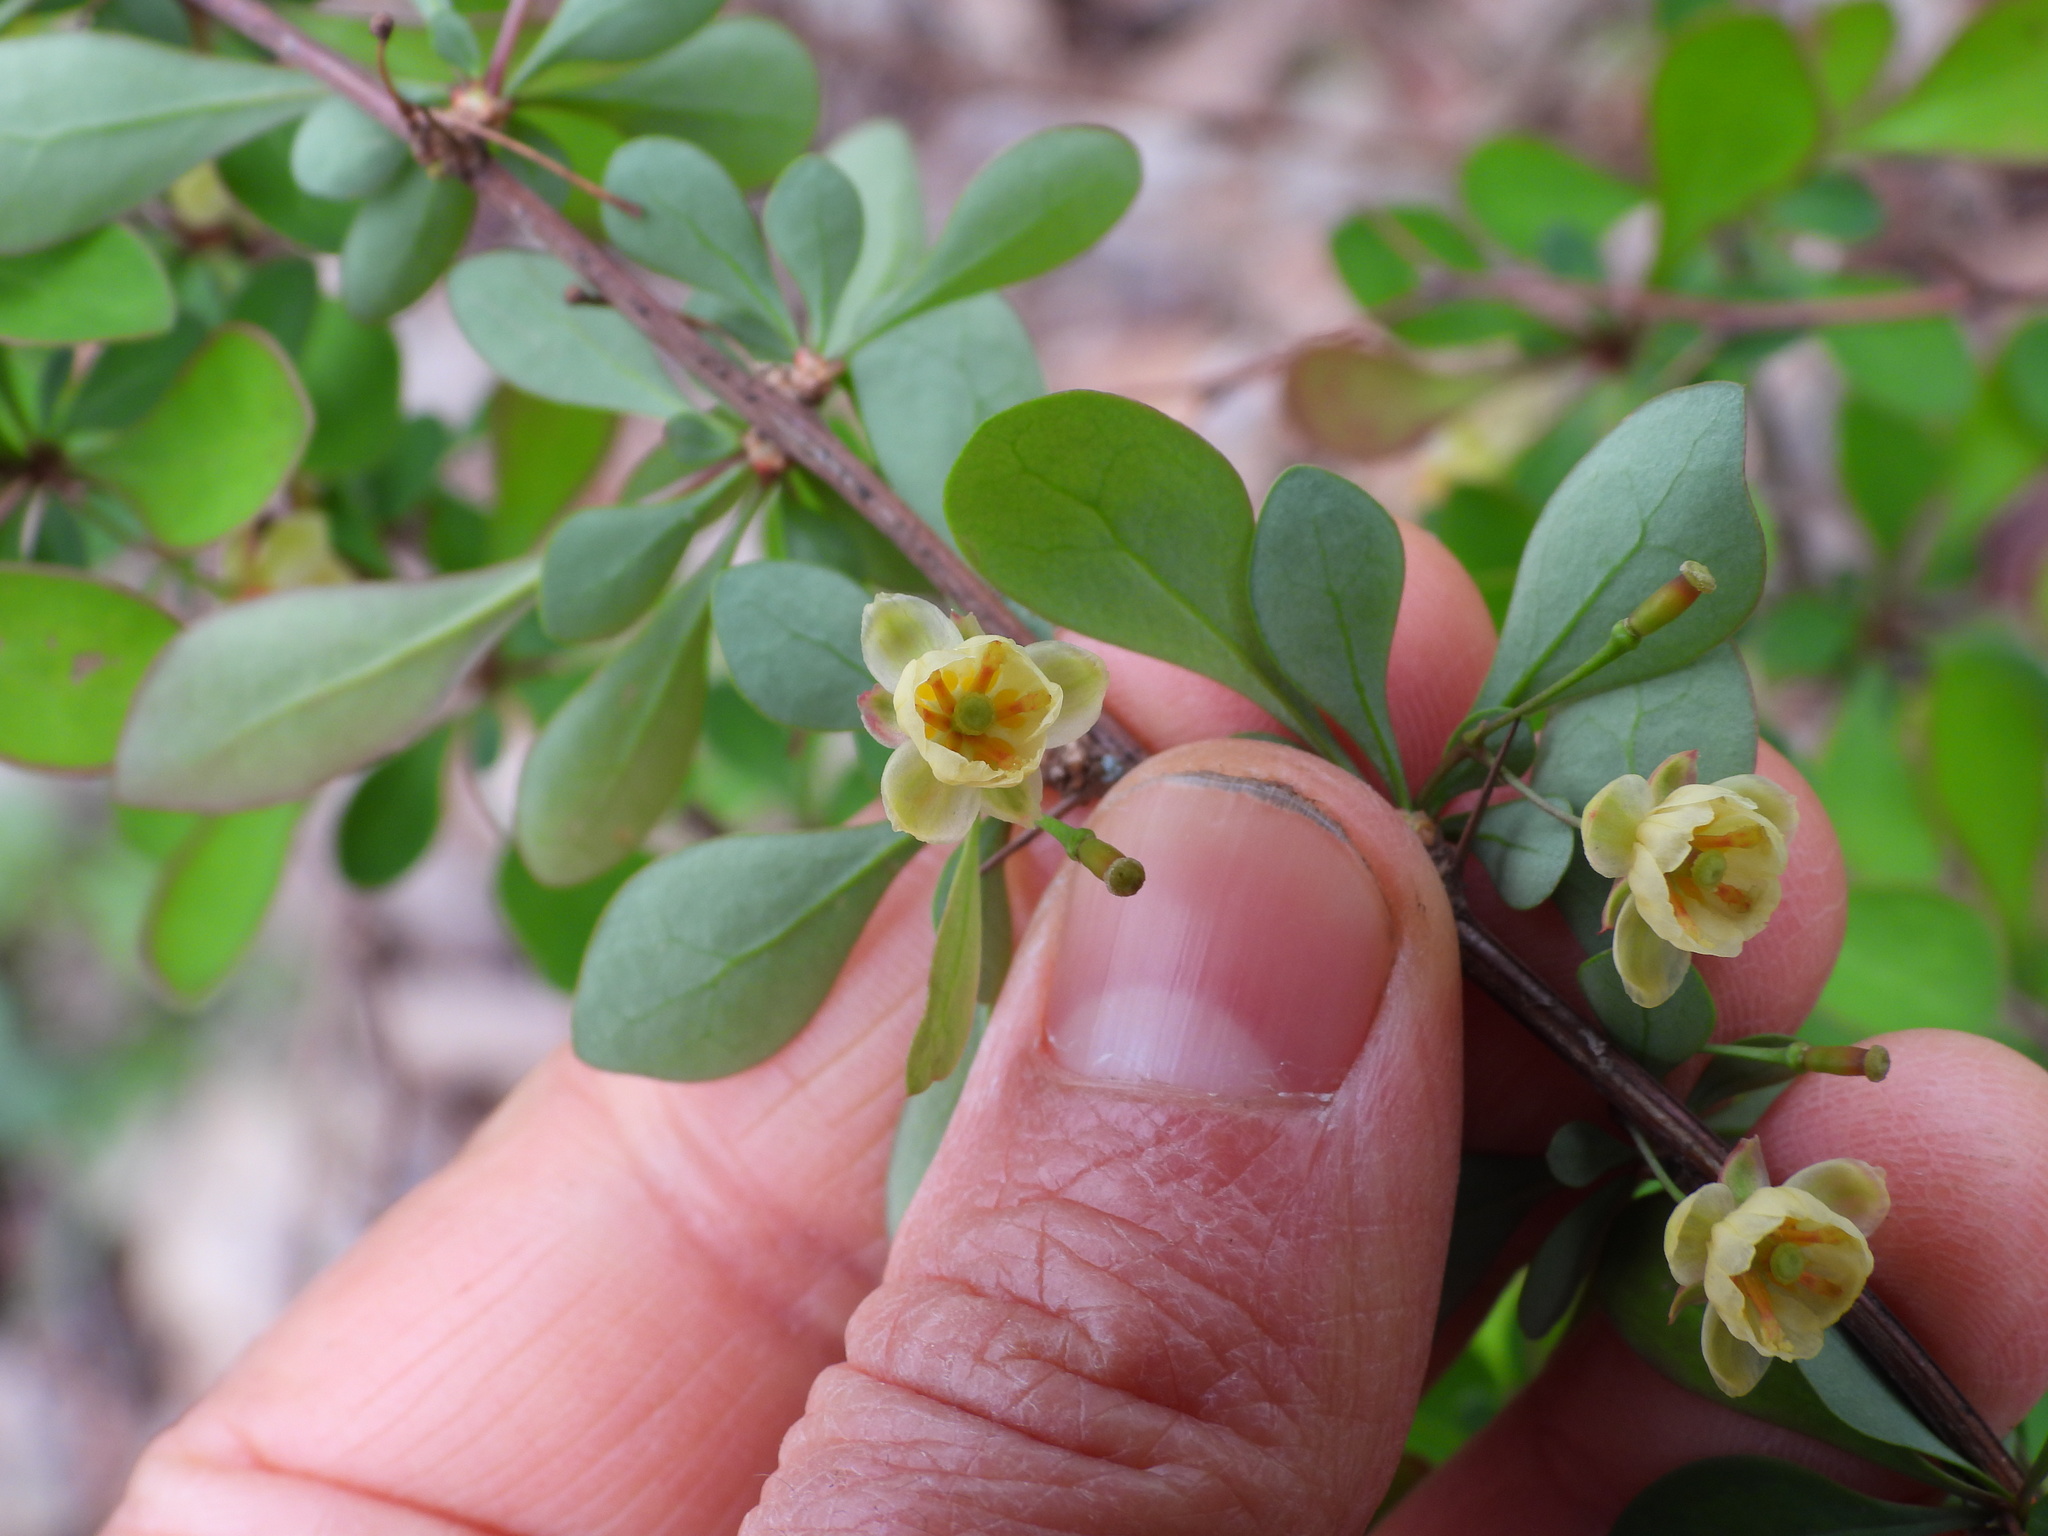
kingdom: Plantae
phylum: Tracheophyta
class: Magnoliopsida
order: Ranunculales
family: Berberidaceae
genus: Berberis
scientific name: Berberis thunbergii
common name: Japanese barberry
